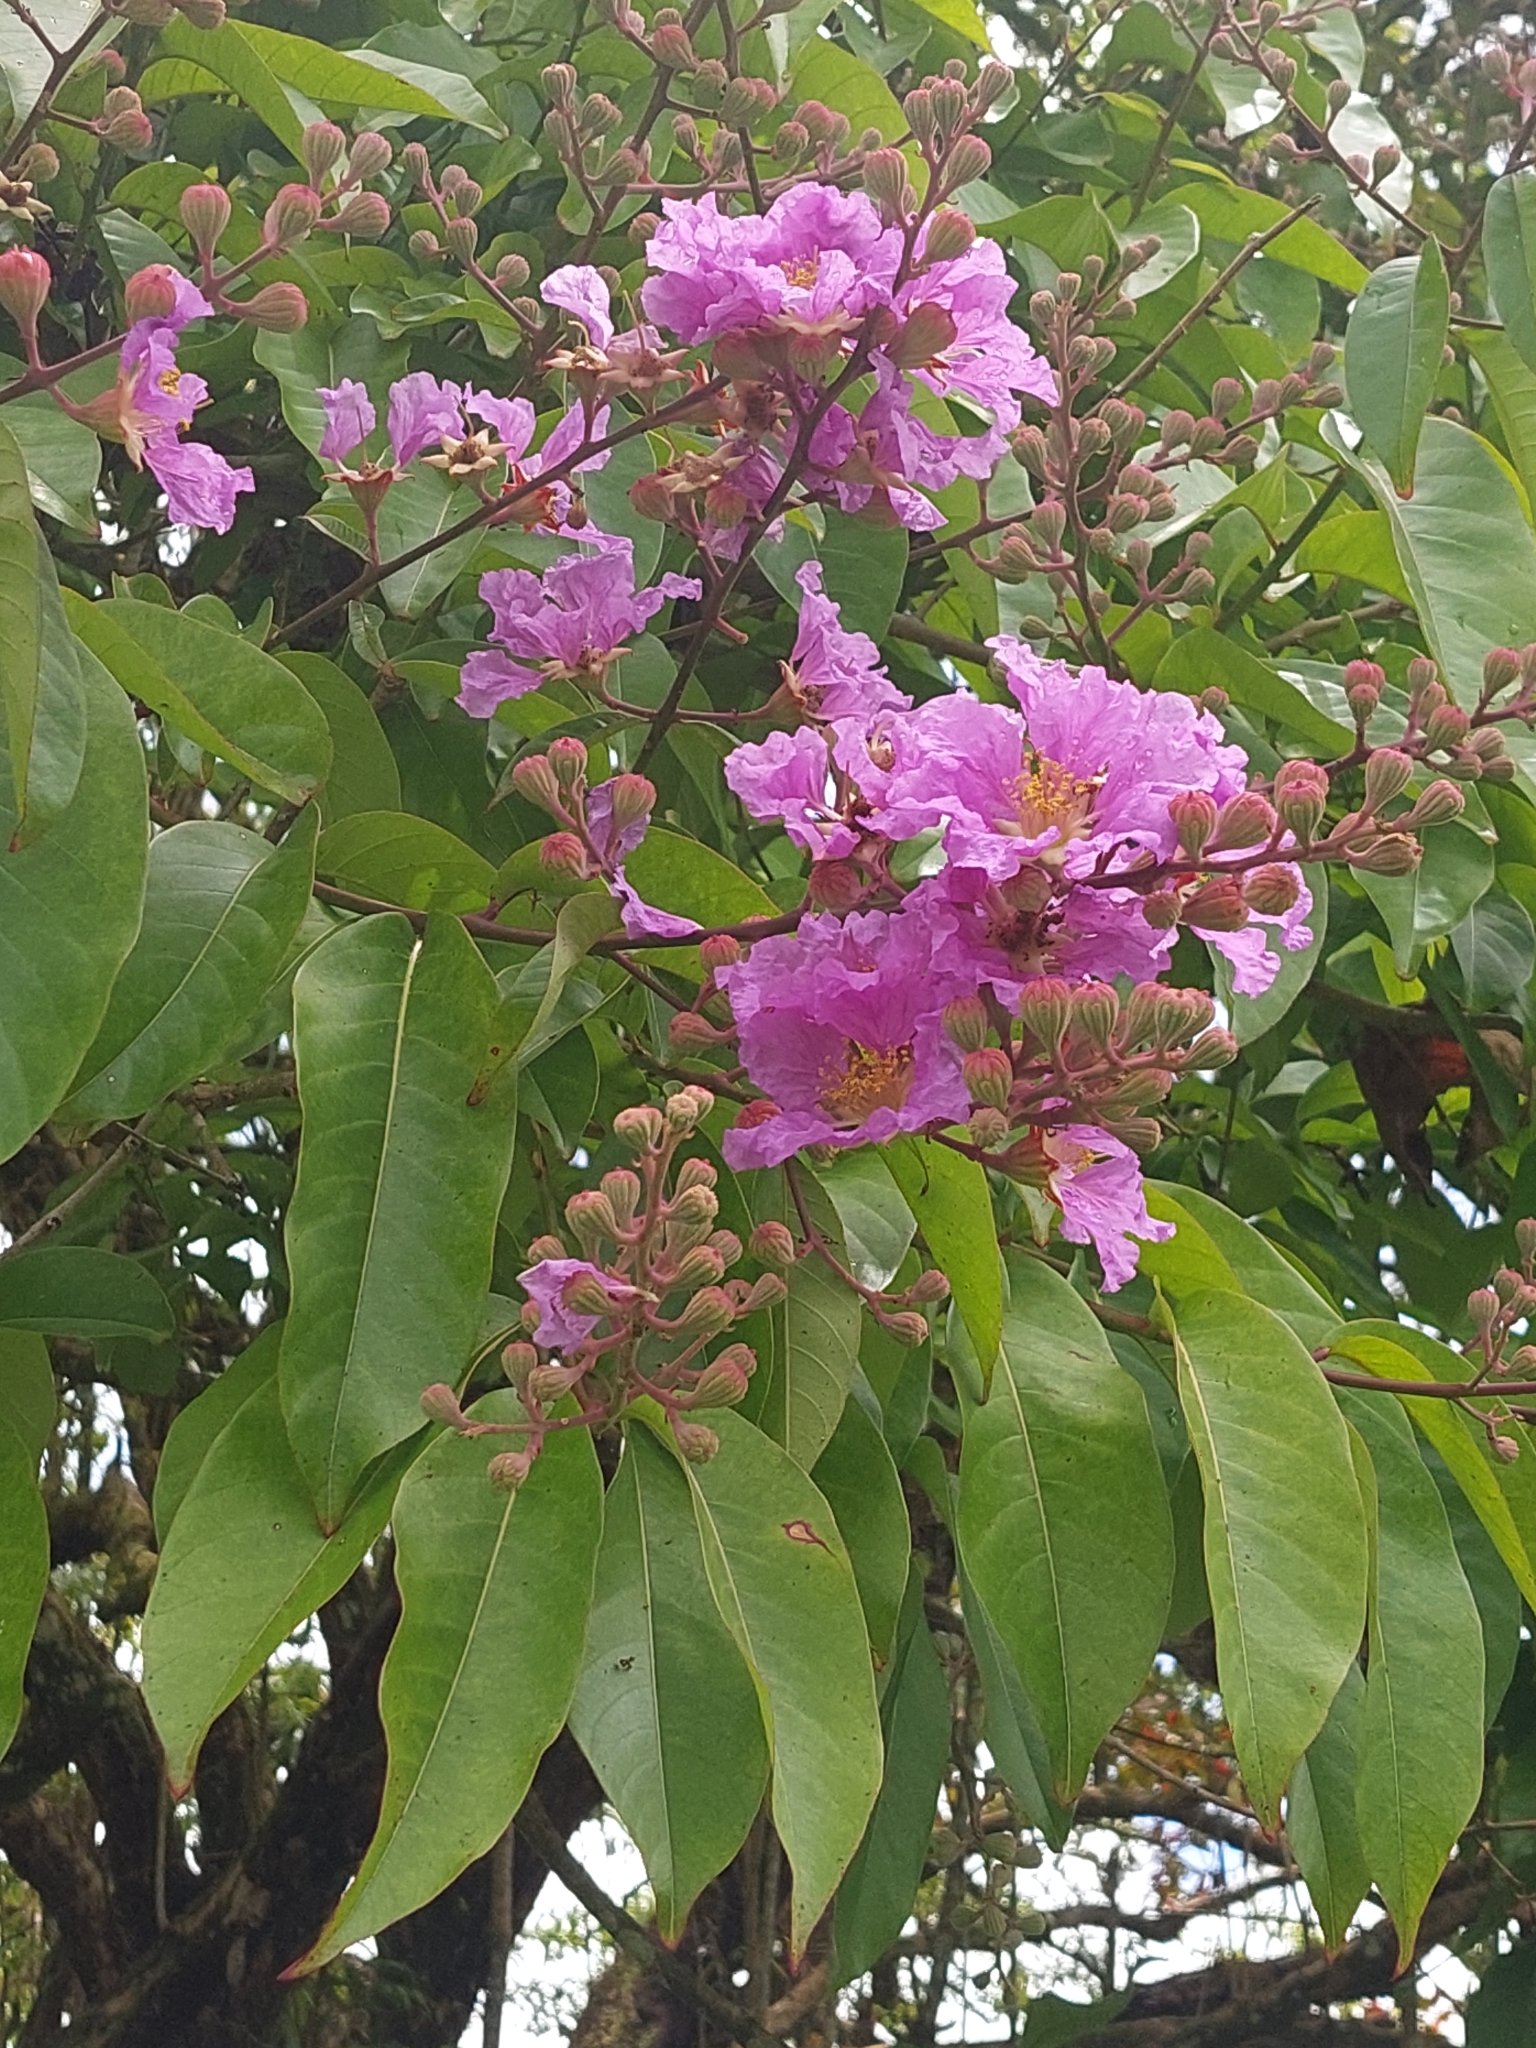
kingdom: Plantae
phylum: Tracheophyta
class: Magnoliopsida
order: Myrtales
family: Lythraceae
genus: Lagerstroemia
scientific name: Lagerstroemia speciosa
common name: Queen's crape-myrtle
